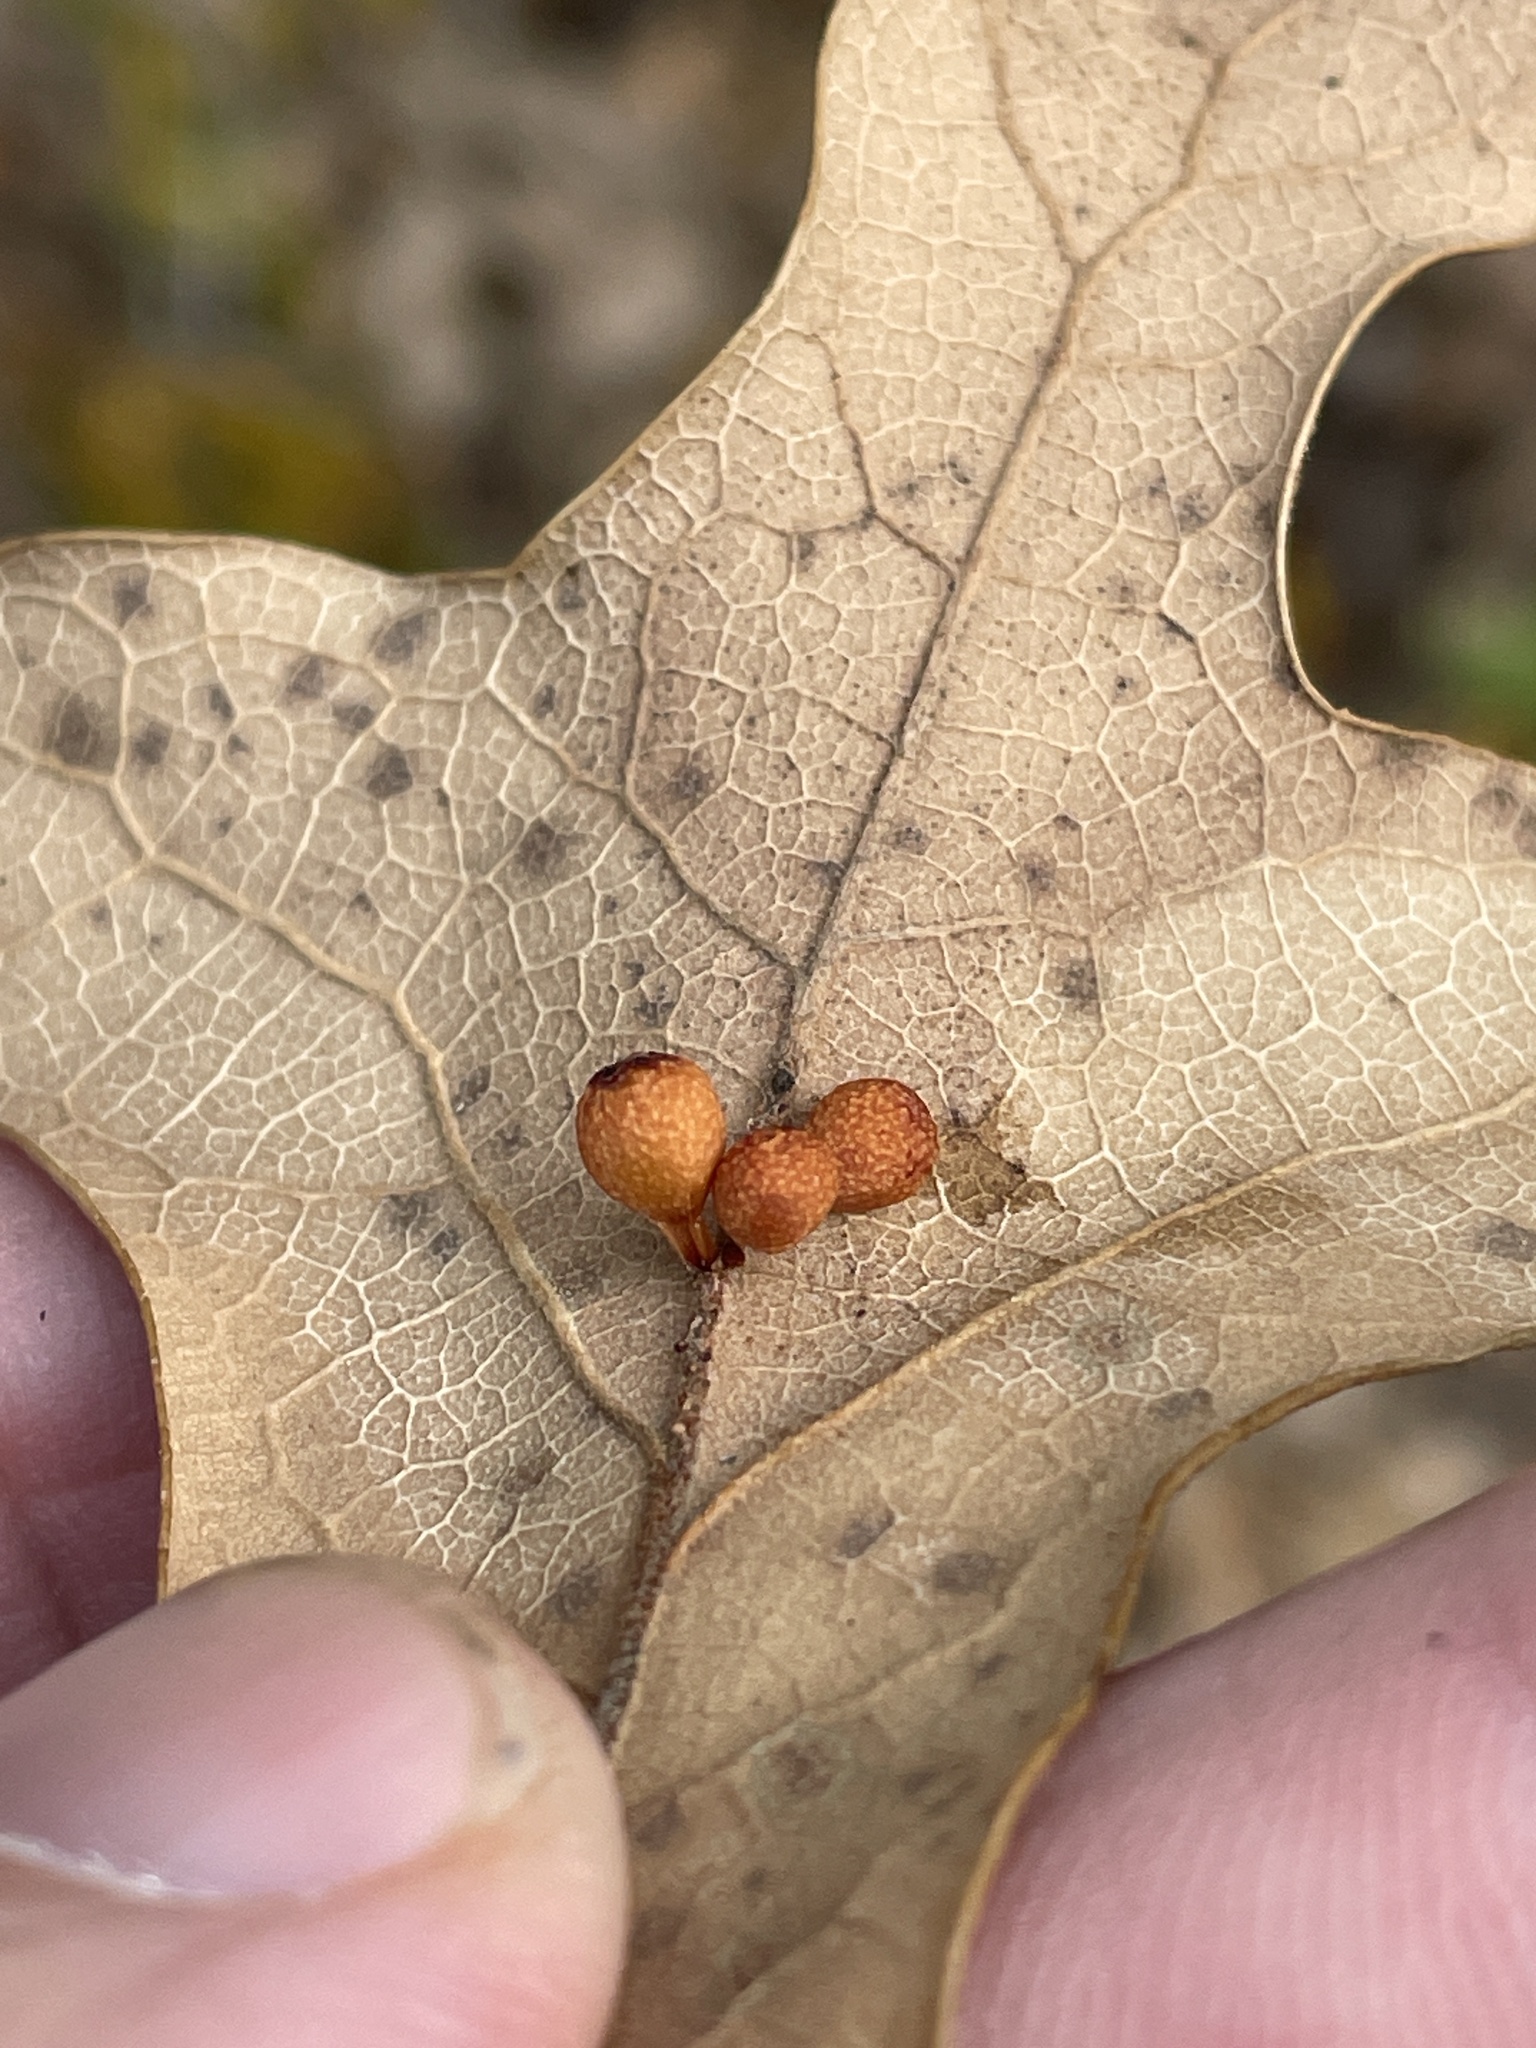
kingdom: Animalia
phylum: Arthropoda
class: Insecta
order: Hymenoptera
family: Cynipidae
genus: Andricus
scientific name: Andricus lustrans
